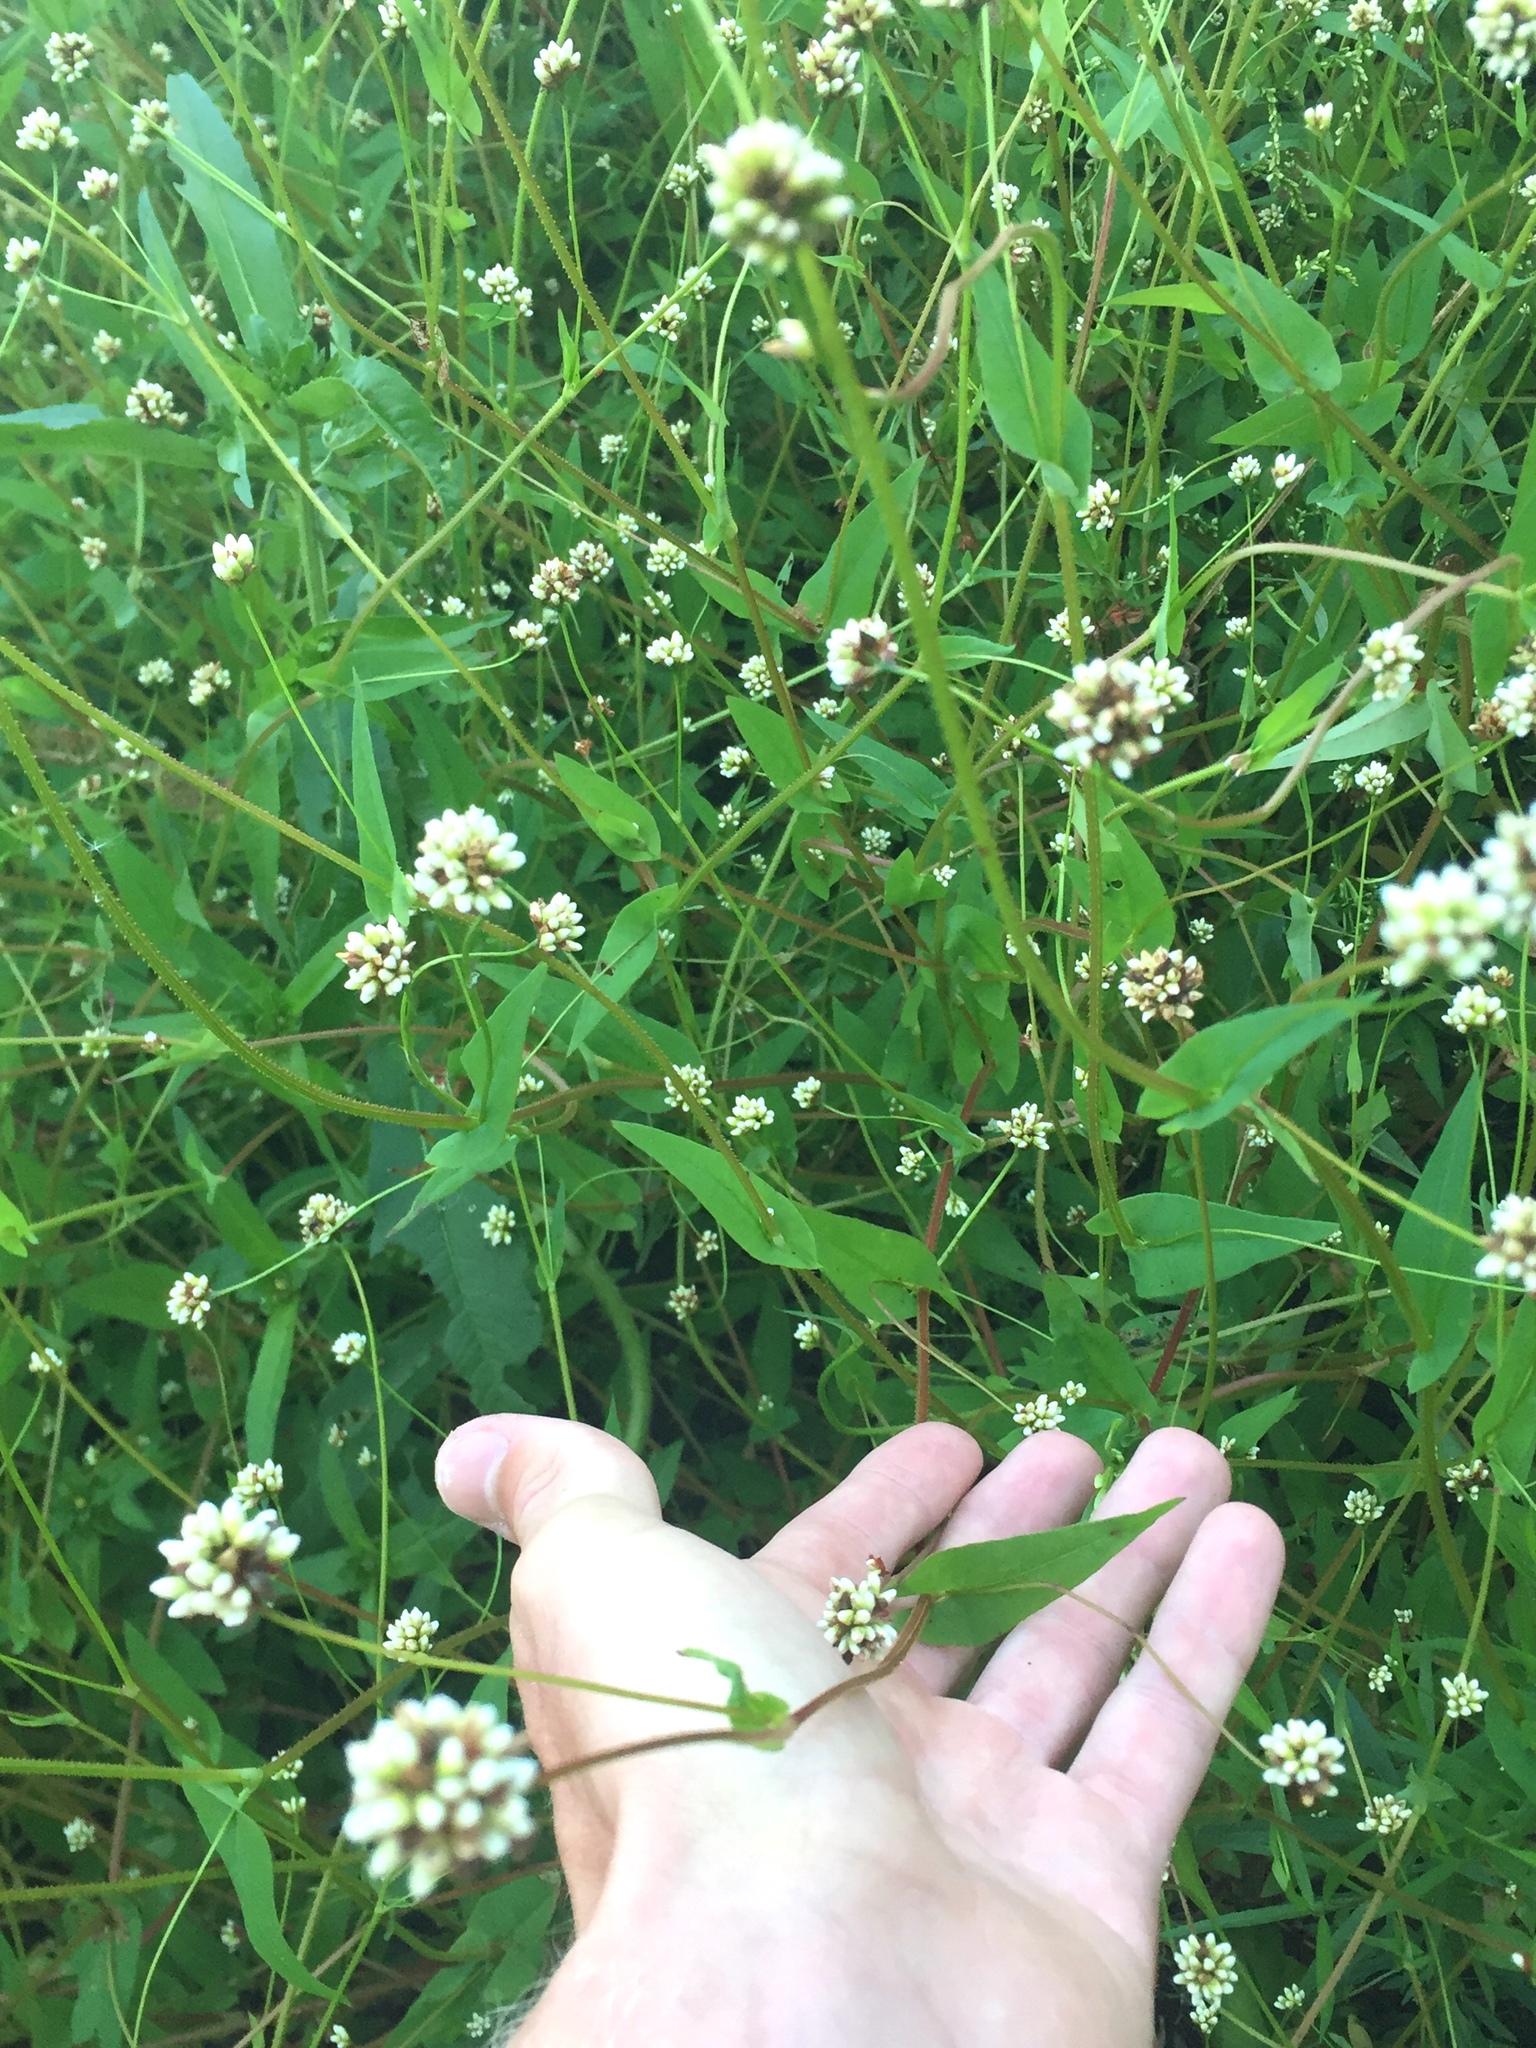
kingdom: Plantae
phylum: Tracheophyta
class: Magnoliopsida
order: Caryophyllales
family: Polygonaceae
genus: Persicaria
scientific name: Persicaria sagittata
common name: American tearthumb
